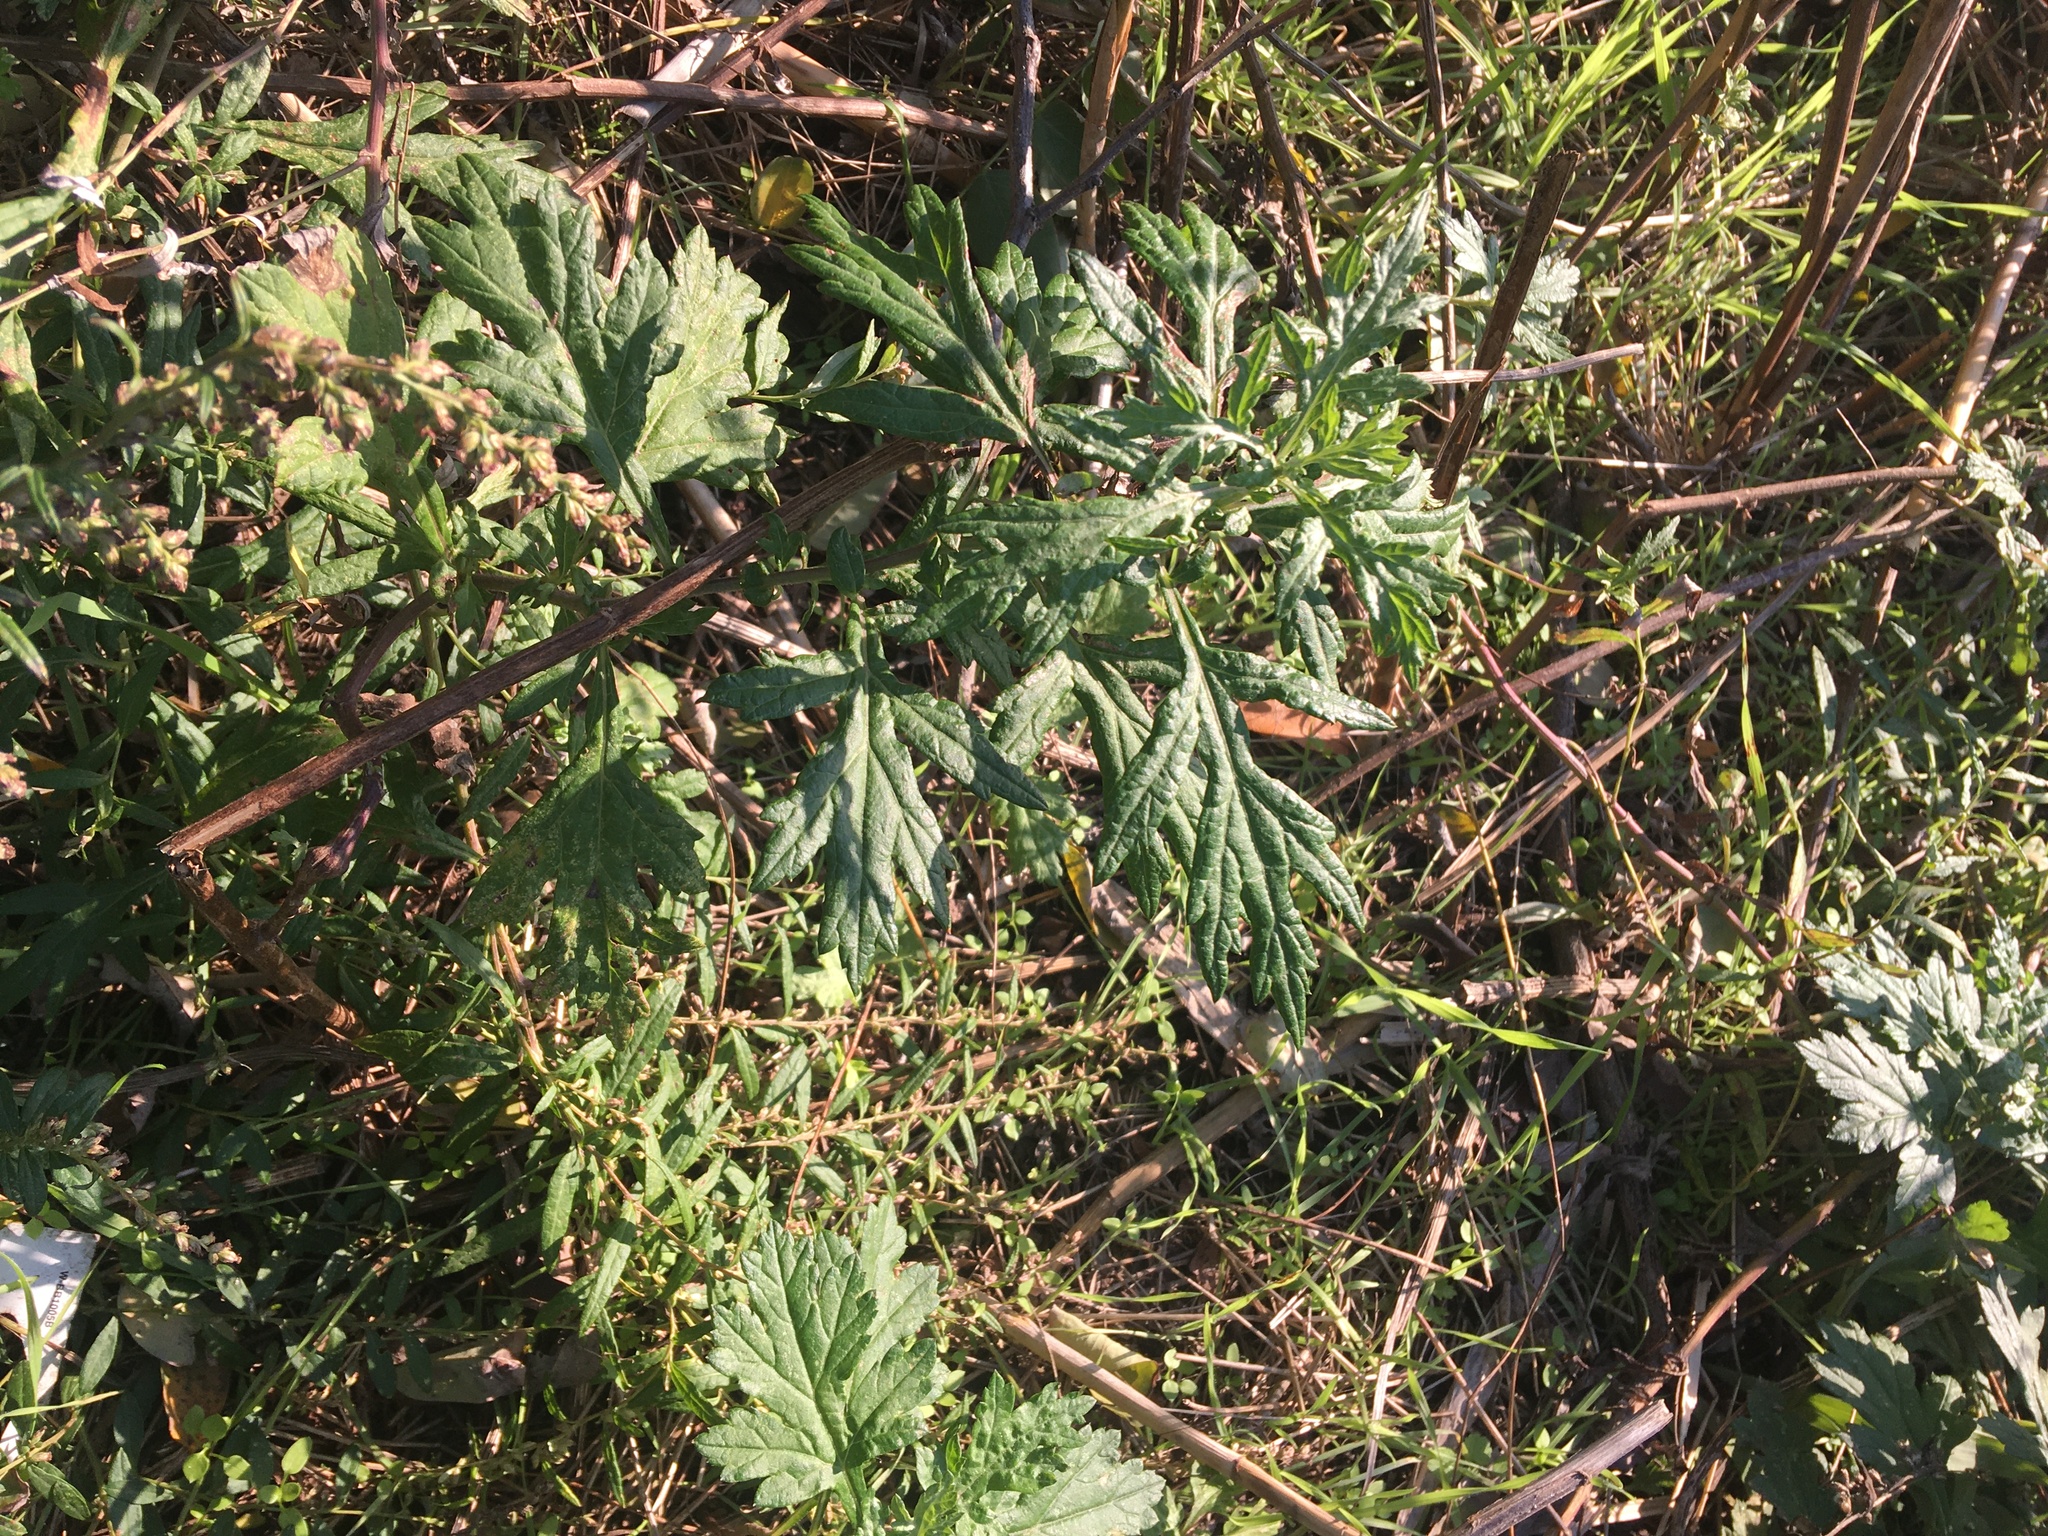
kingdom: Plantae
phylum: Tracheophyta
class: Magnoliopsida
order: Asterales
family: Asteraceae
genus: Artemisia
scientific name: Artemisia vulgaris
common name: Mugwort
